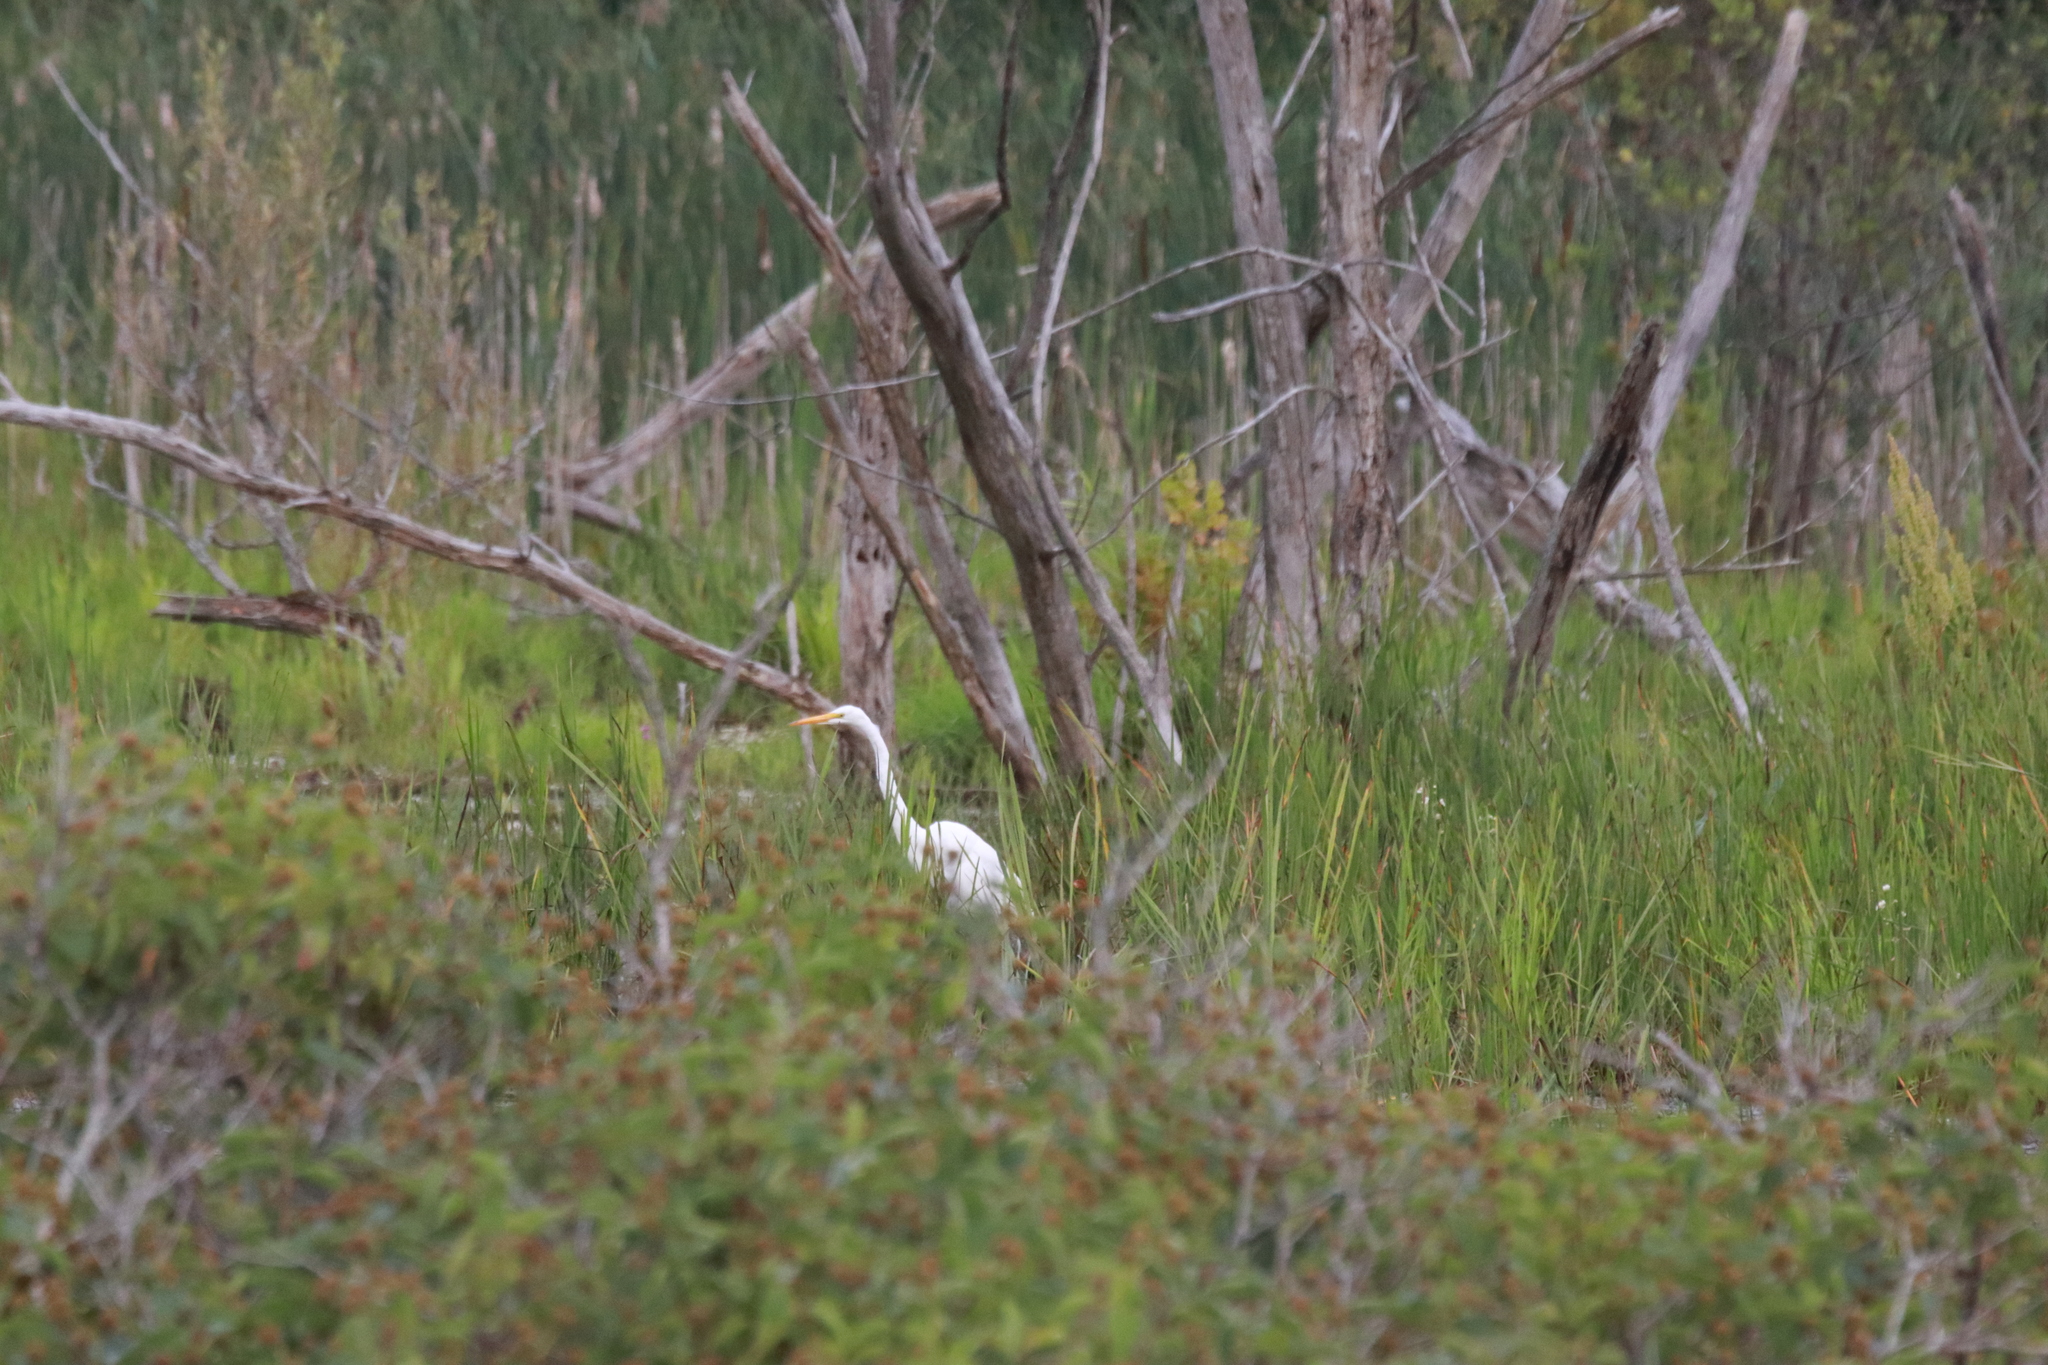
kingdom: Animalia
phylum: Chordata
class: Aves
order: Pelecaniformes
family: Ardeidae
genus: Ardea
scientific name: Ardea alba
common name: Great egret
